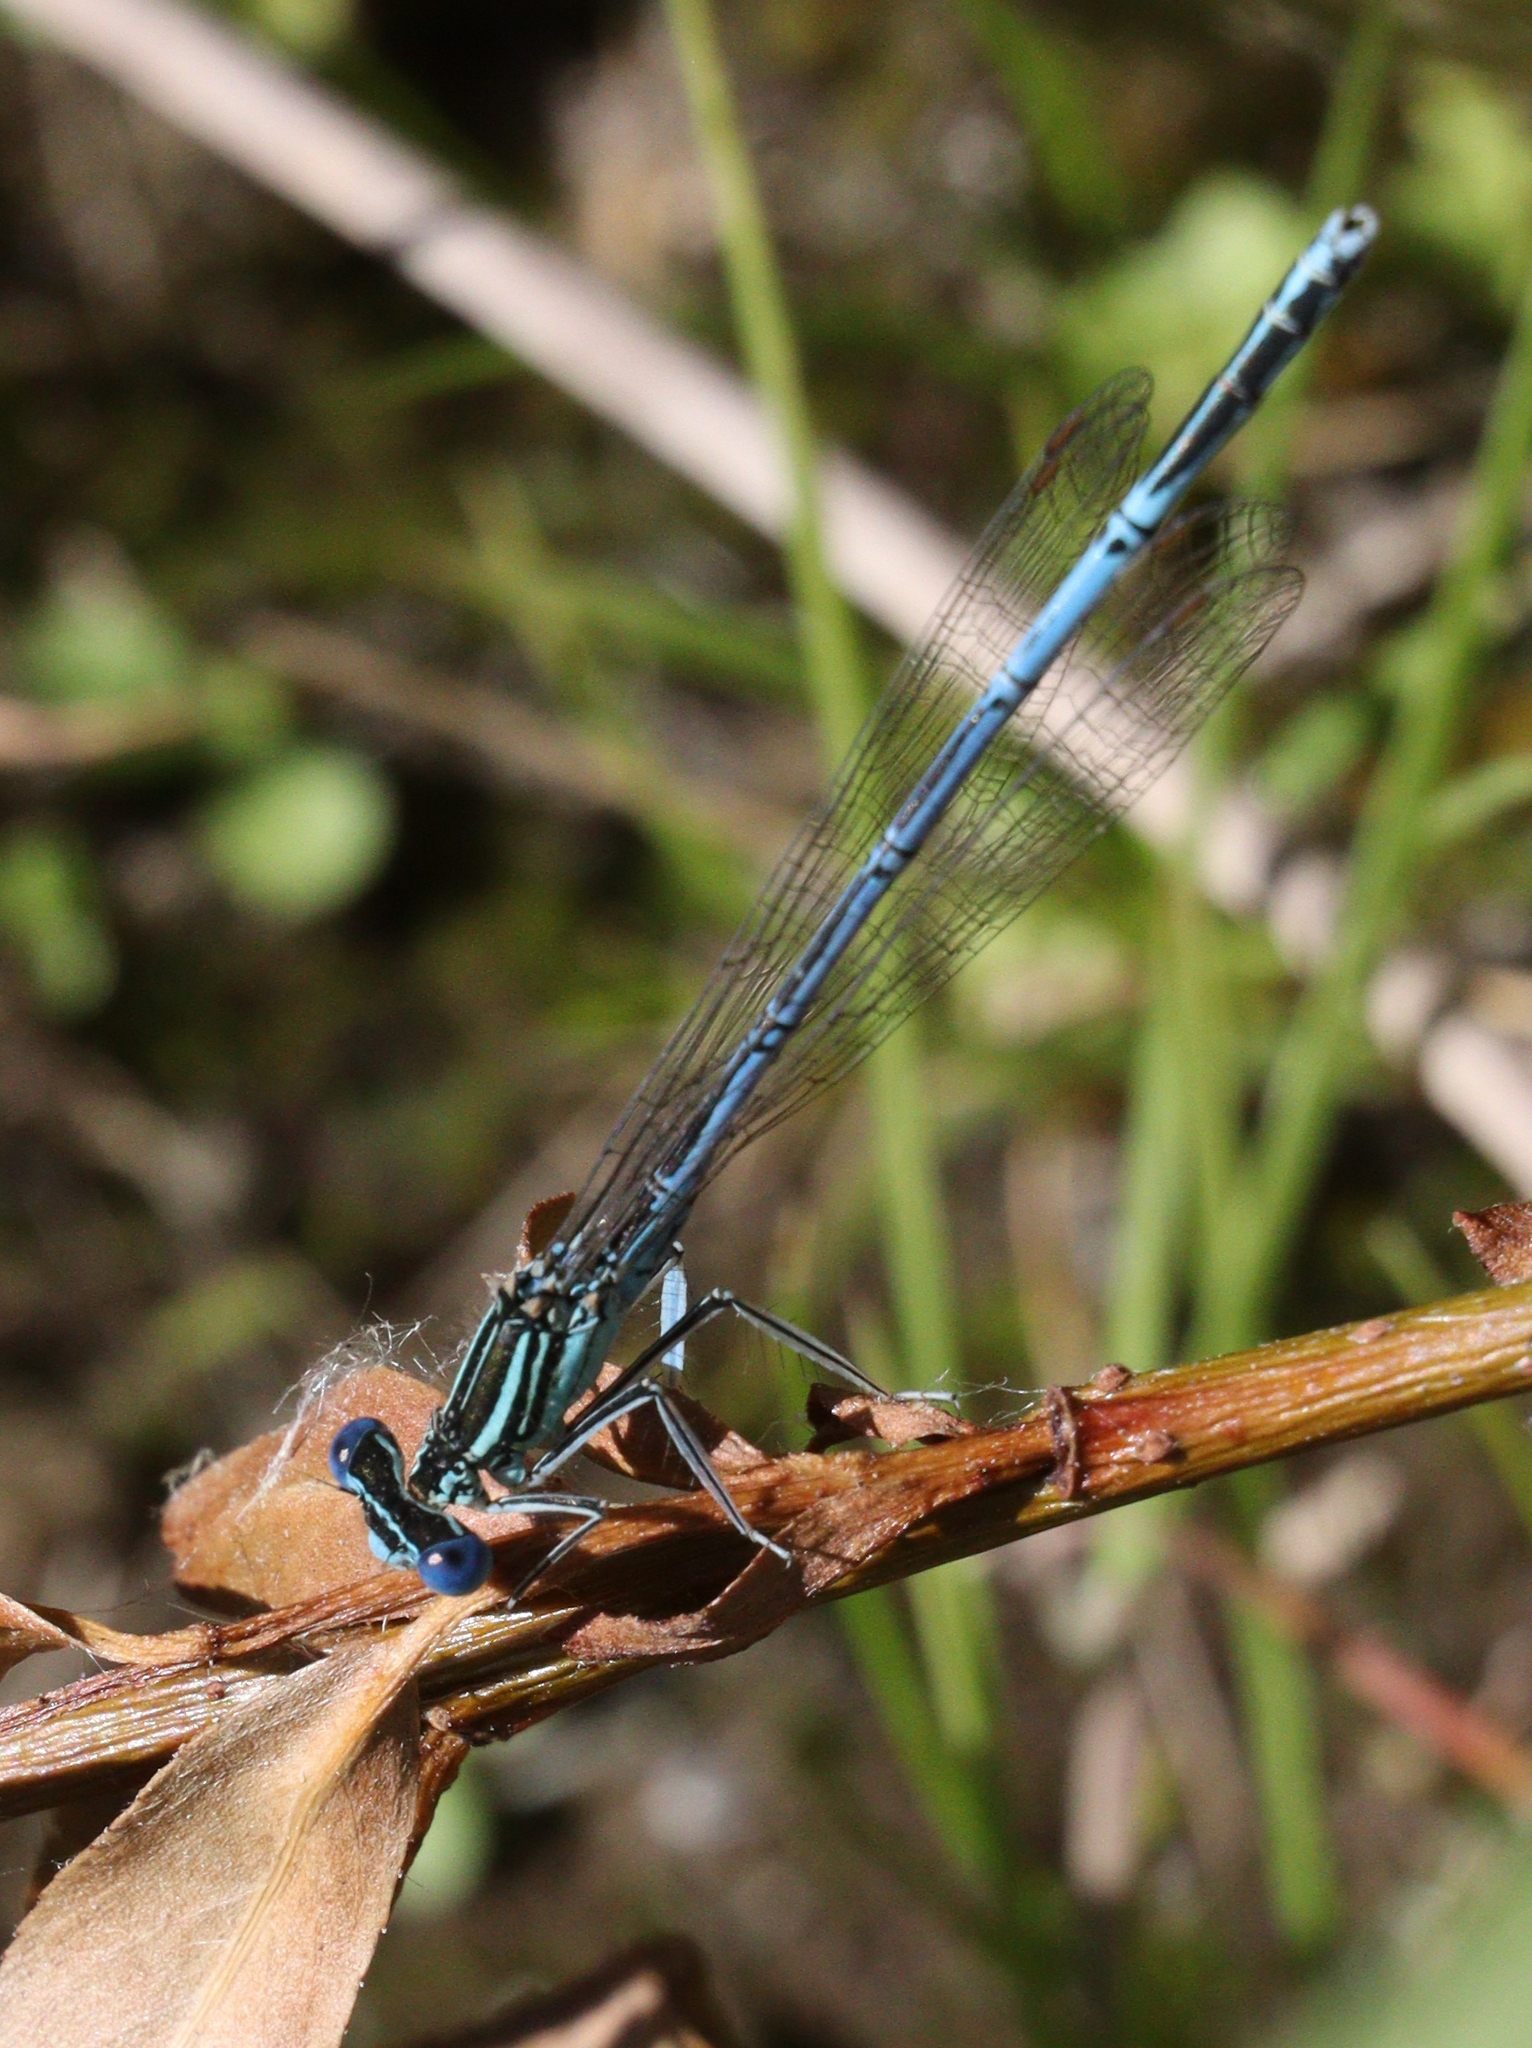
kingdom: Animalia
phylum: Arthropoda
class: Insecta
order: Odonata
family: Platycnemididae
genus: Platycnemis
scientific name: Platycnemis pennipes
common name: White-legged damselfly
